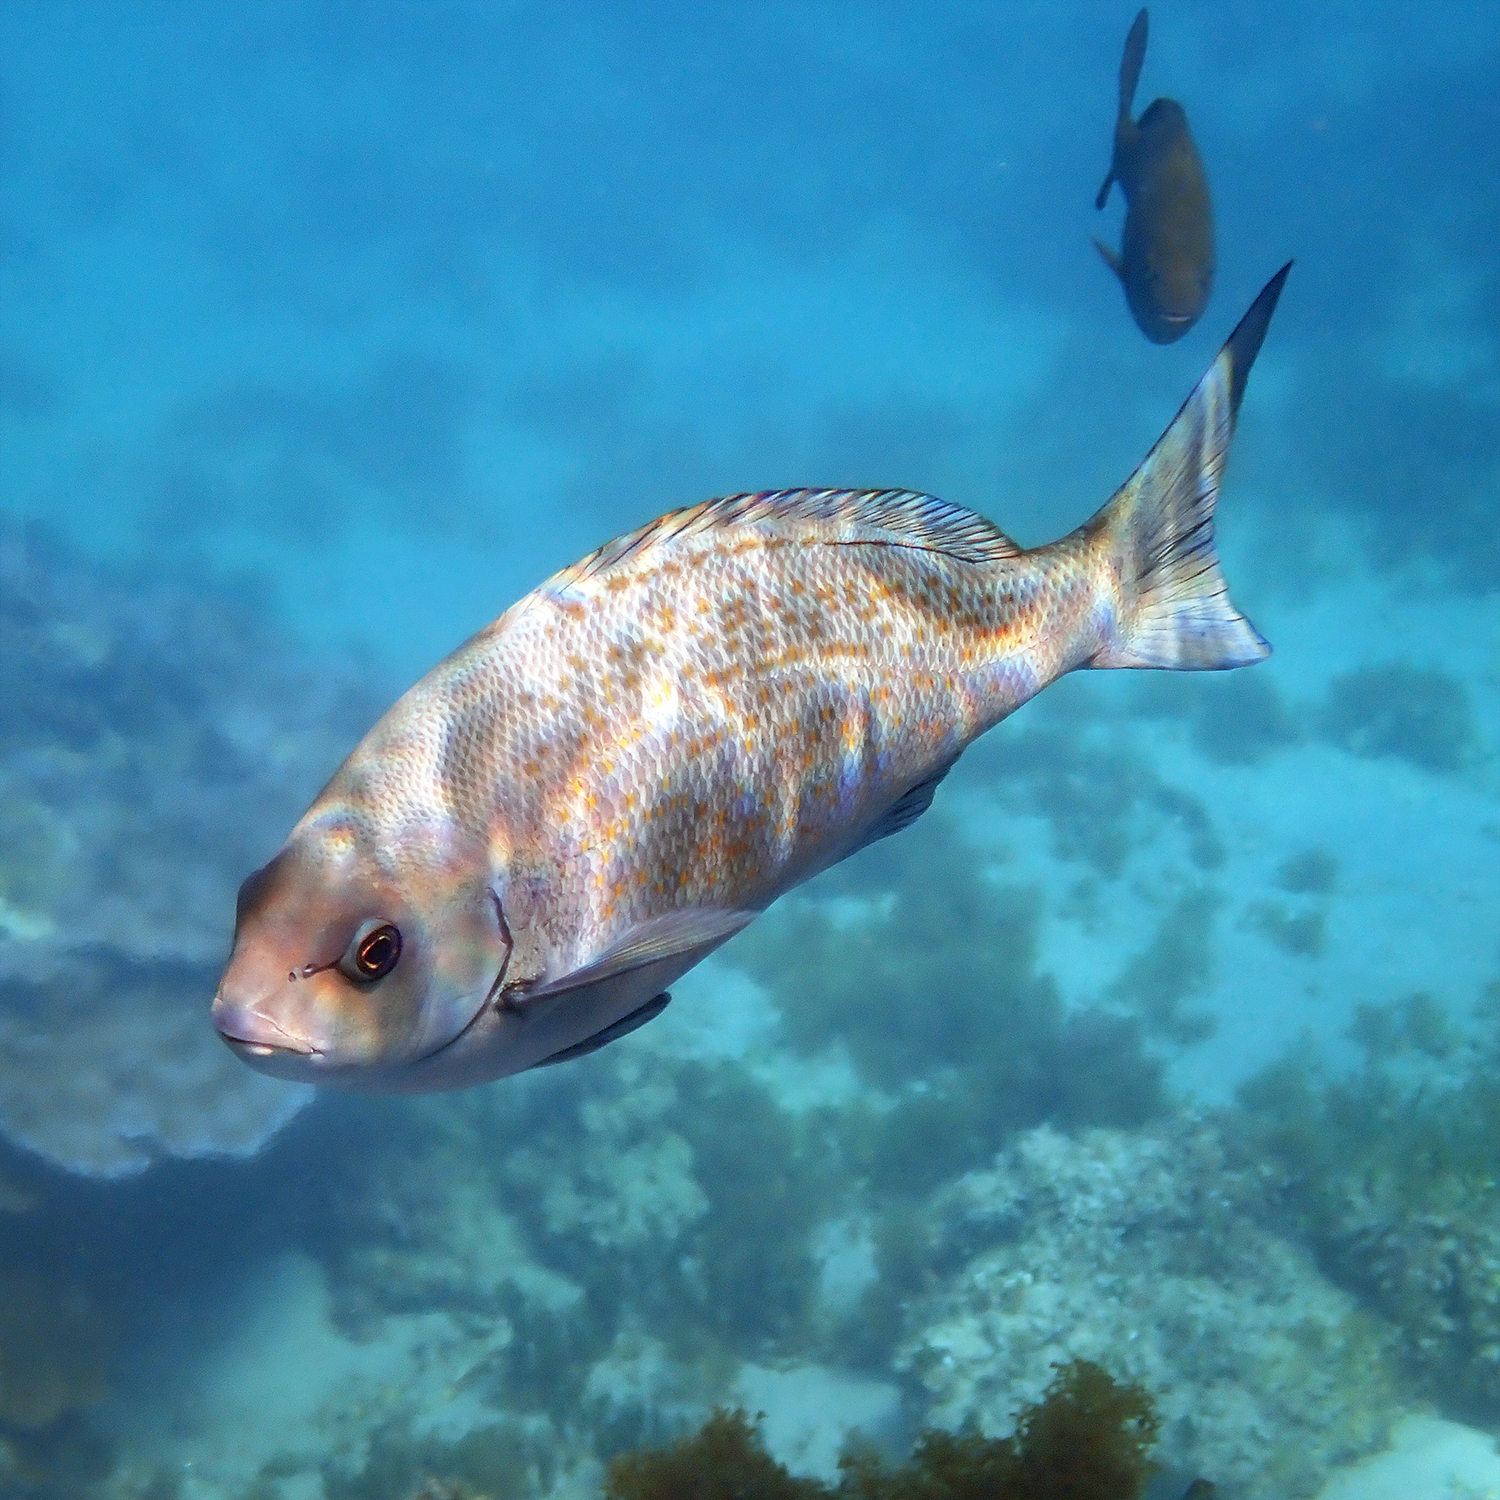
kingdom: Animalia
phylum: Chordata
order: Perciformes
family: Kyphosidae
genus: Girella
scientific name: Girella cyanea
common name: Bluefish
